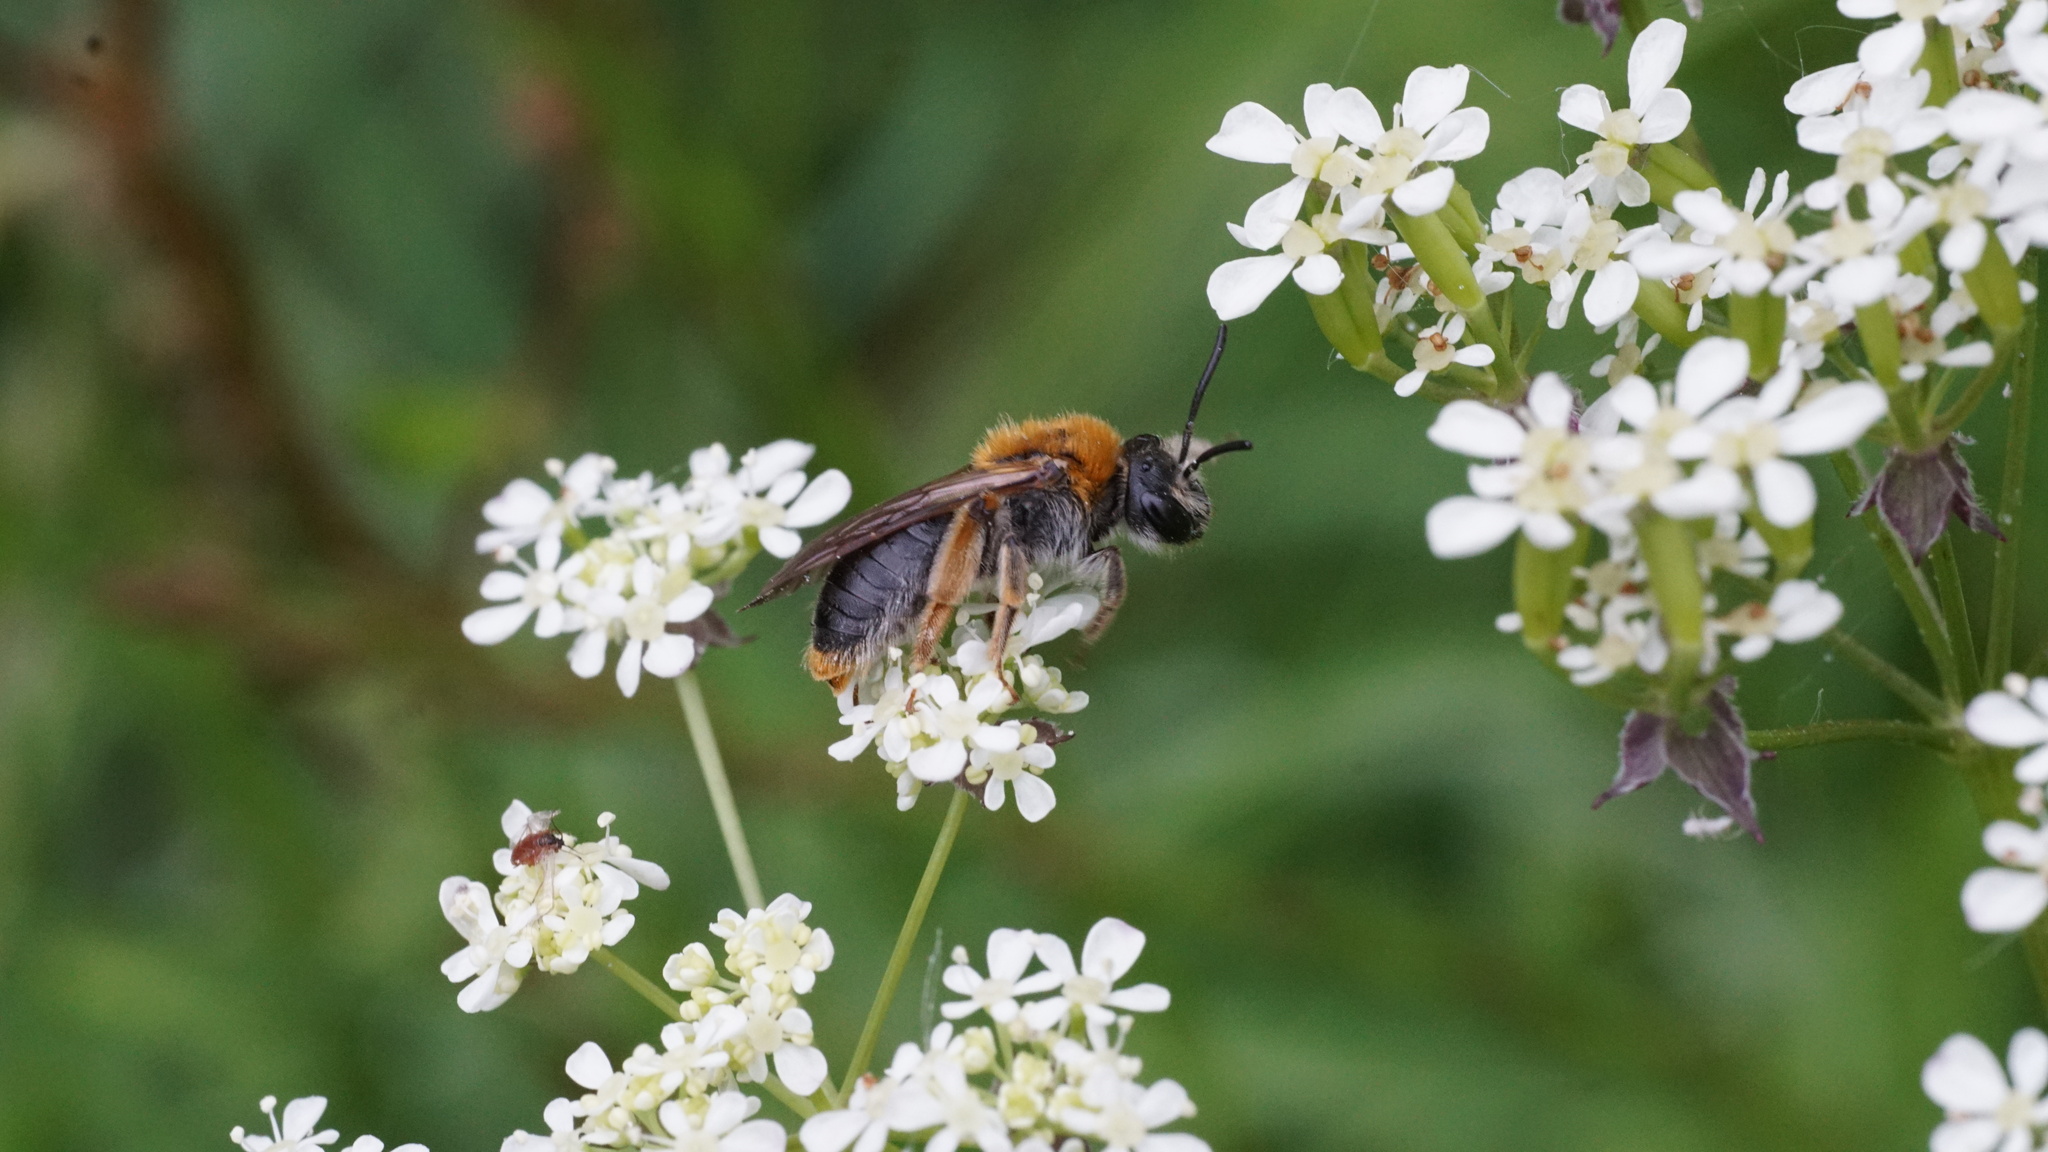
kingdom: Animalia
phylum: Arthropoda
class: Insecta
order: Hymenoptera
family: Andrenidae
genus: Andrena
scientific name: Andrena haemorrhoa
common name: Early mining bee
